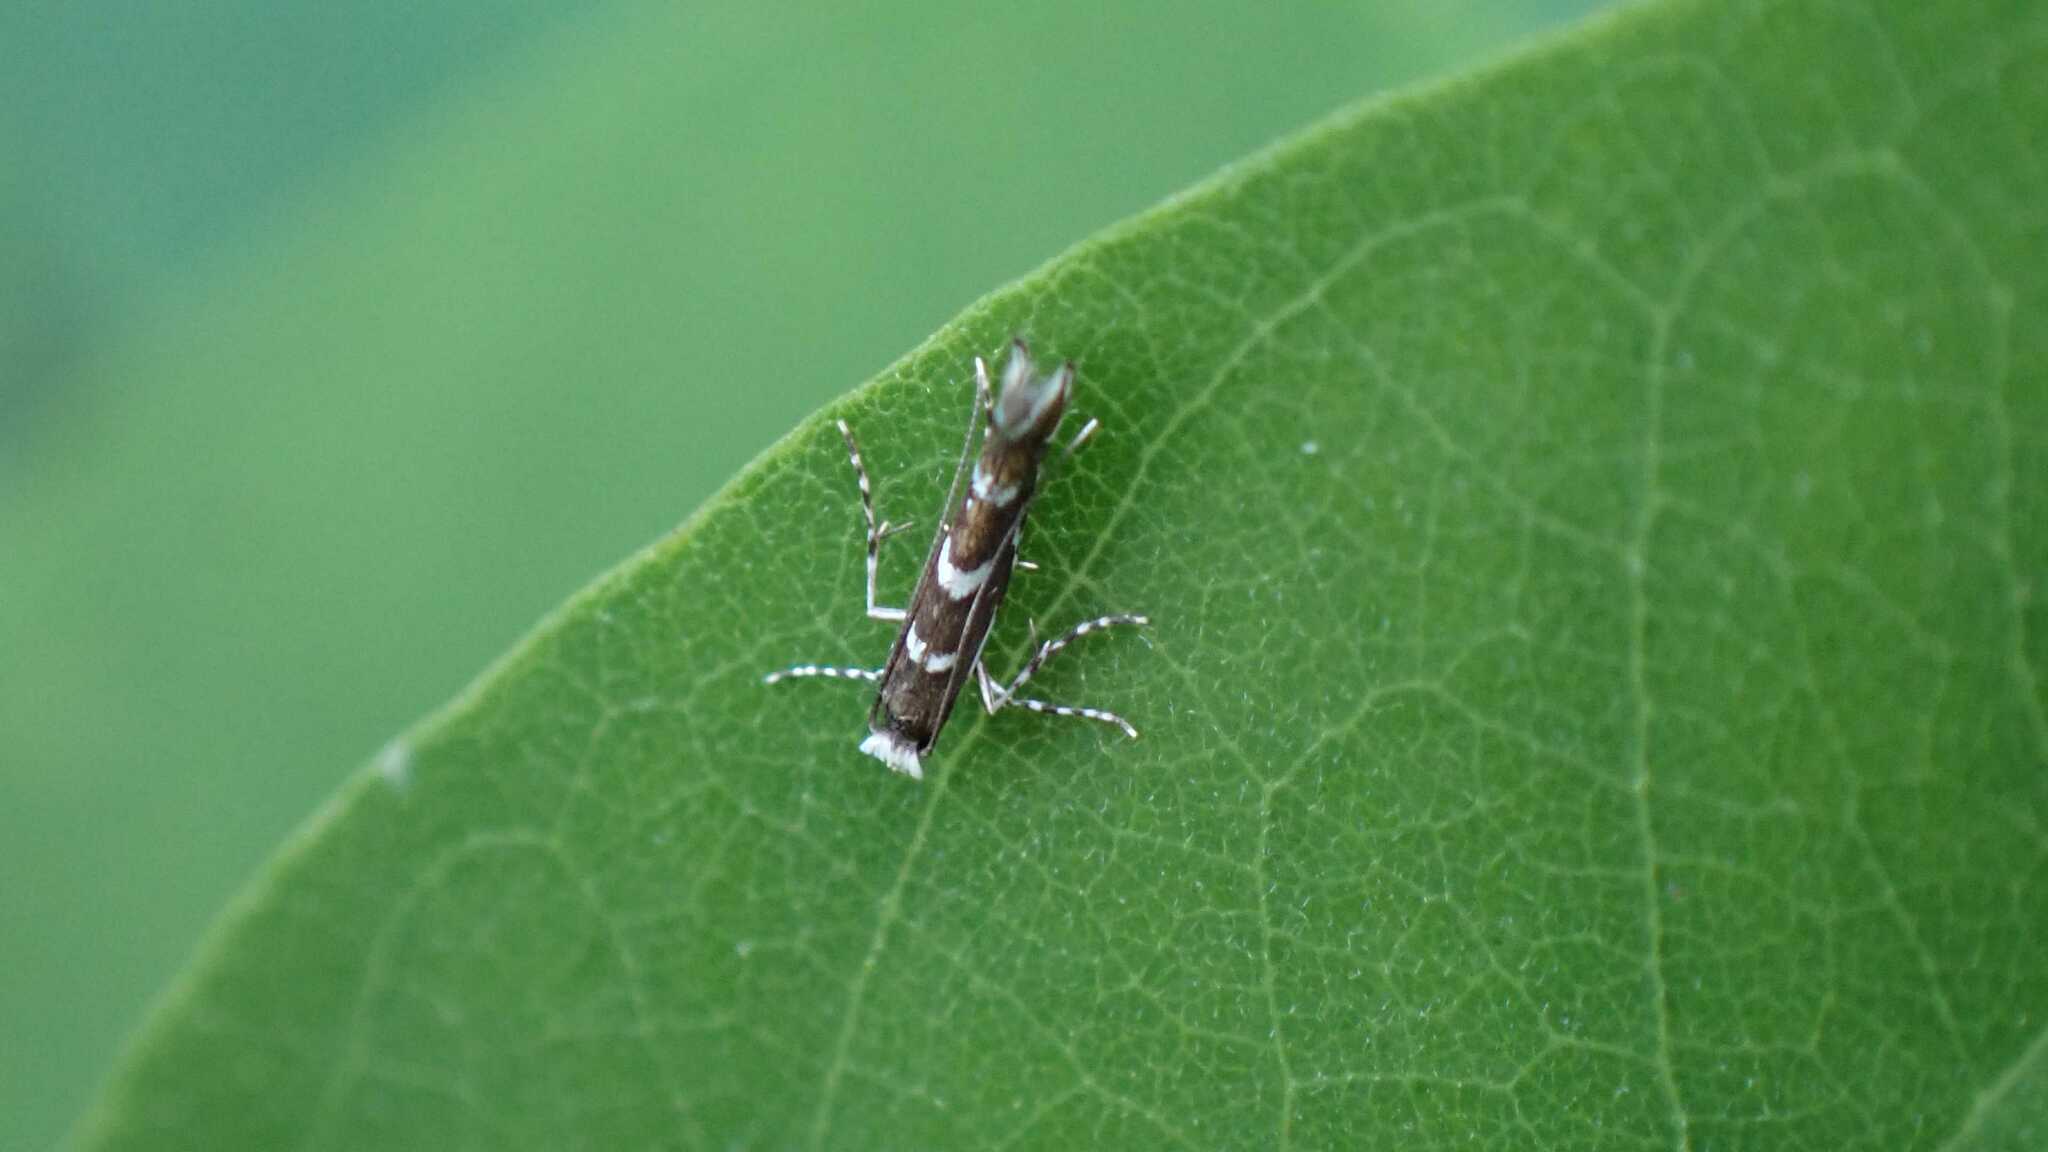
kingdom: Animalia
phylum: Arthropoda
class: Insecta
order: Lepidoptera
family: Gracillariidae
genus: Parectopa
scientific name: Parectopa robiniella
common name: Locust digitate leafminer
